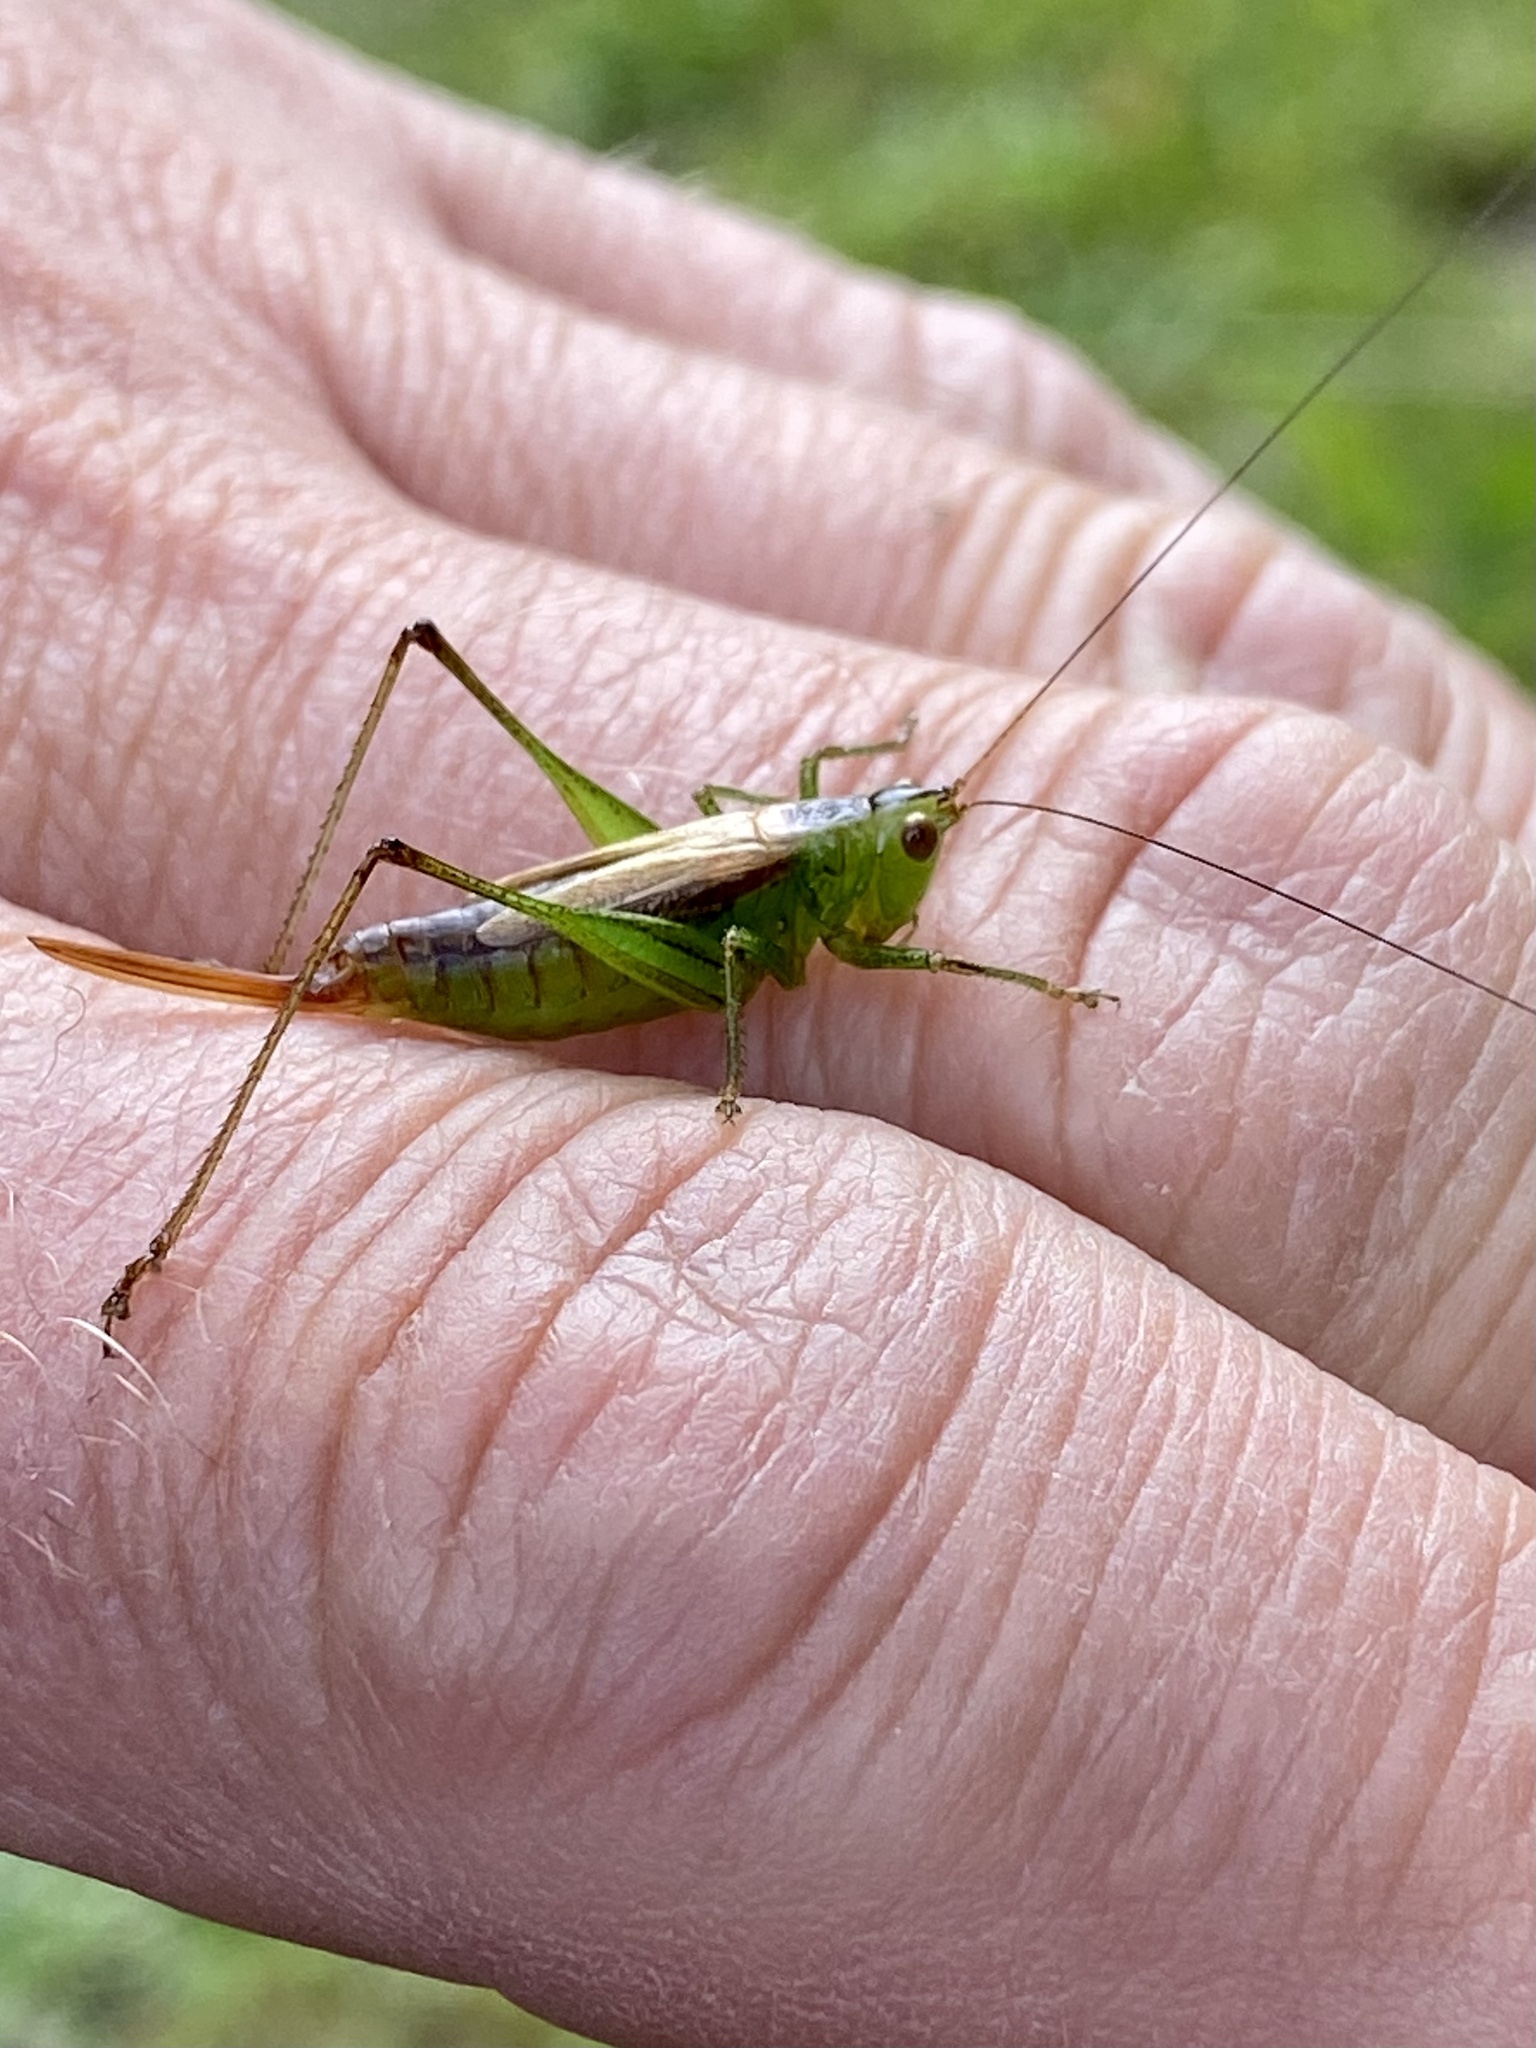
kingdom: Animalia
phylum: Arthropoda
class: Insecta
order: Orthoptera
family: Tettigoniidae
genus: Conocephalus
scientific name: Conocephalus brevipennis
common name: Short-winged meadow katydid
